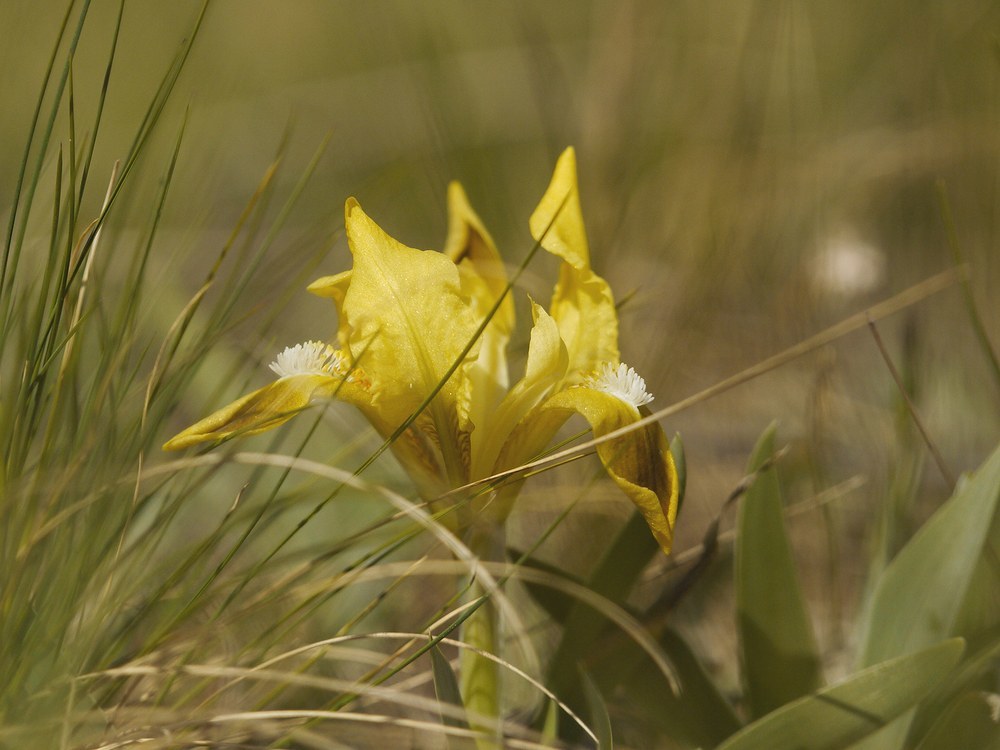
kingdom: Plantae
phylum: Tracheophyta
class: Liliopsida
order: Asparagales
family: Iridaceae
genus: Iris
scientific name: Iris pumila
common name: Dwarf iris
